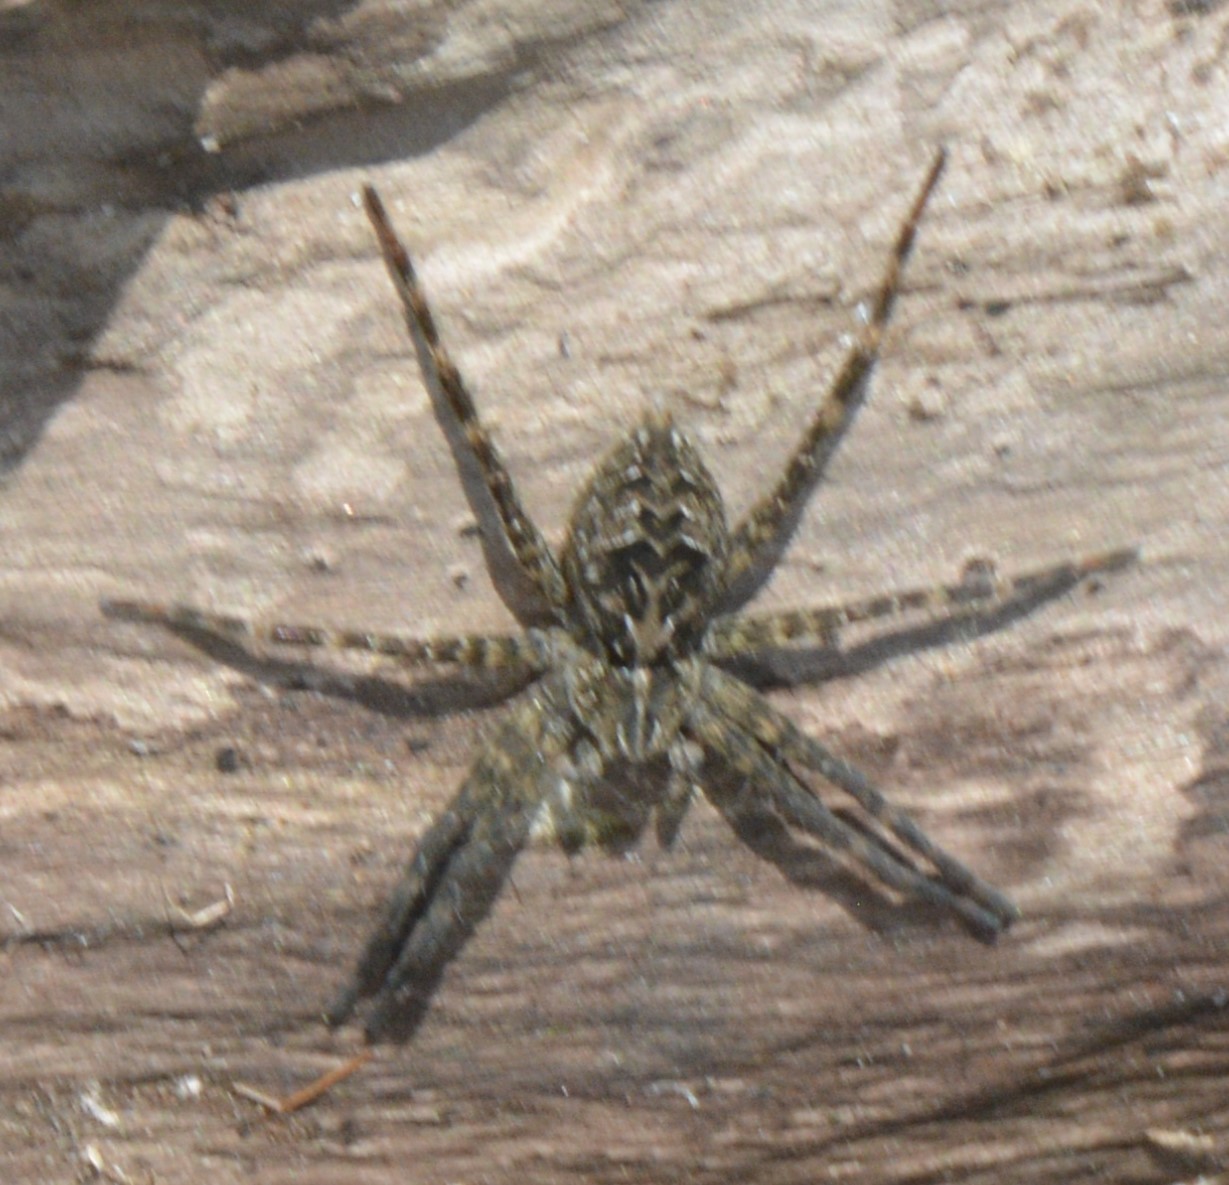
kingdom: Animalia
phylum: Arthropoda
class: Arachnida
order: Araneae
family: Pisauridae
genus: Dolomedes
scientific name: Dolomedes scriptus
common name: Striped fishing spider
